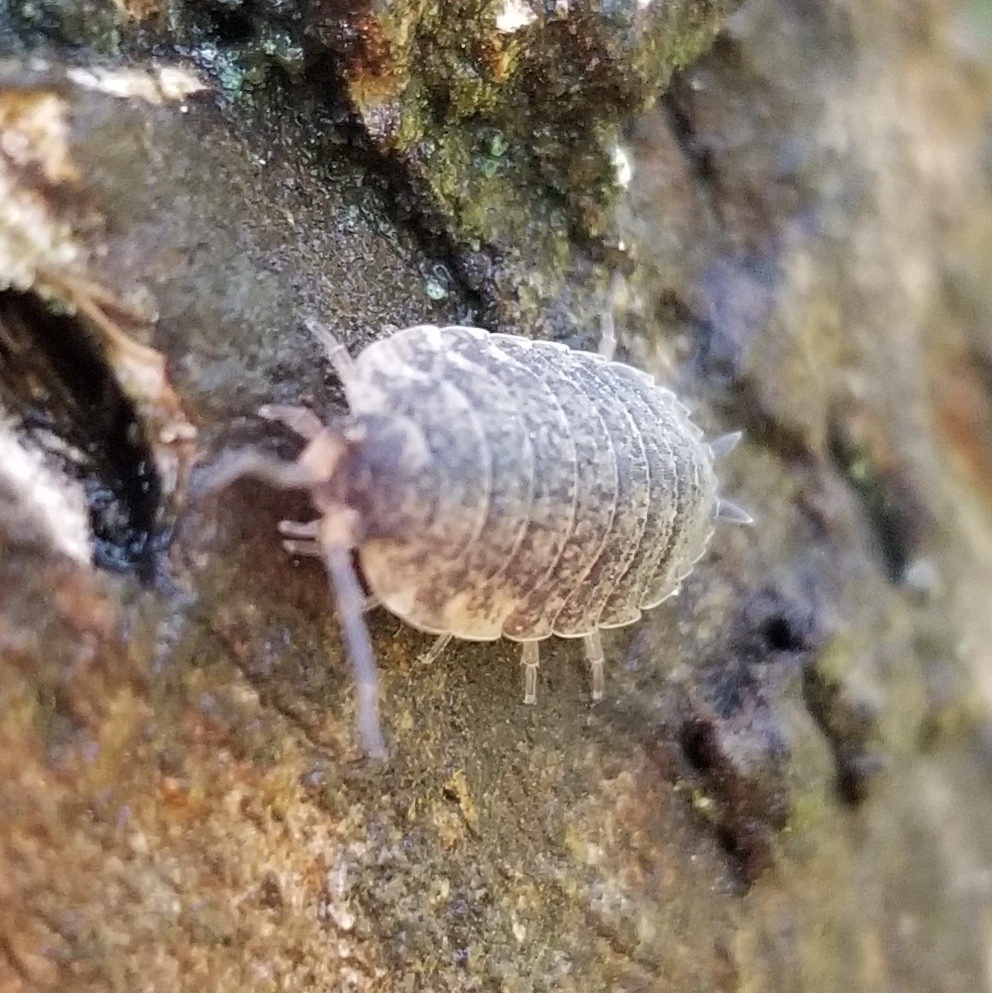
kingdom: Animalia
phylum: Arthropoda
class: Malacostraca
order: Isopoda
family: Porcellionidae
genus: Porcellio
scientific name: Porcellio scaber
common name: Common rough woodlouse
